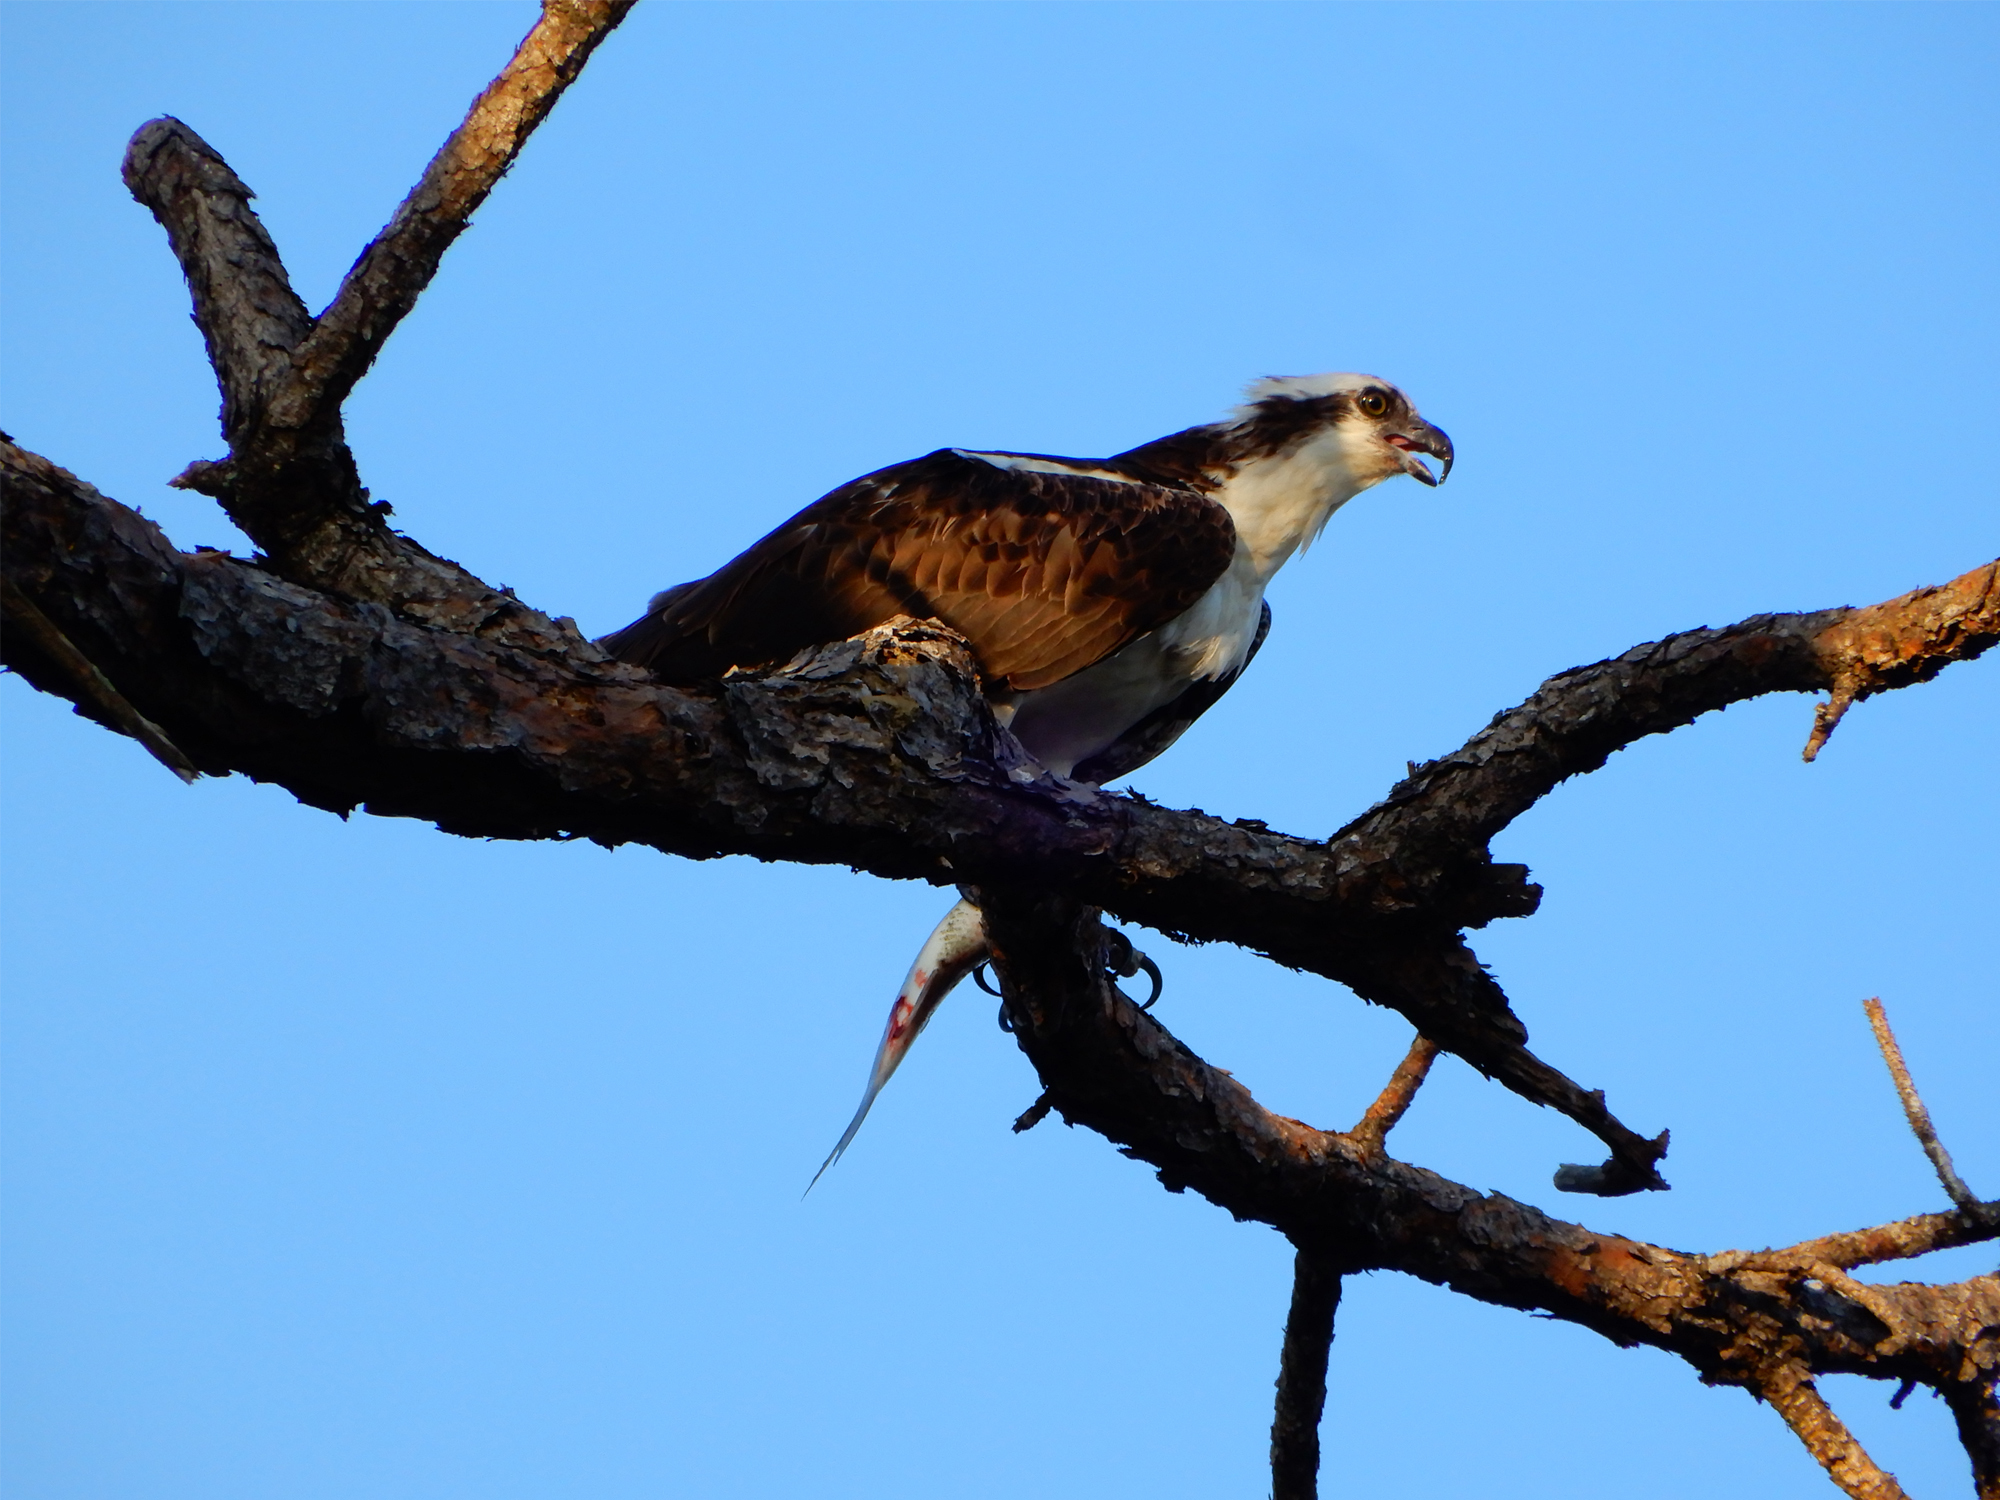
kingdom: Animalia
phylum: Chordata
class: Aves
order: Accipitriformes
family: Pandionidae
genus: Pandion
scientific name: Pandion haliaetus
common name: Osprey
